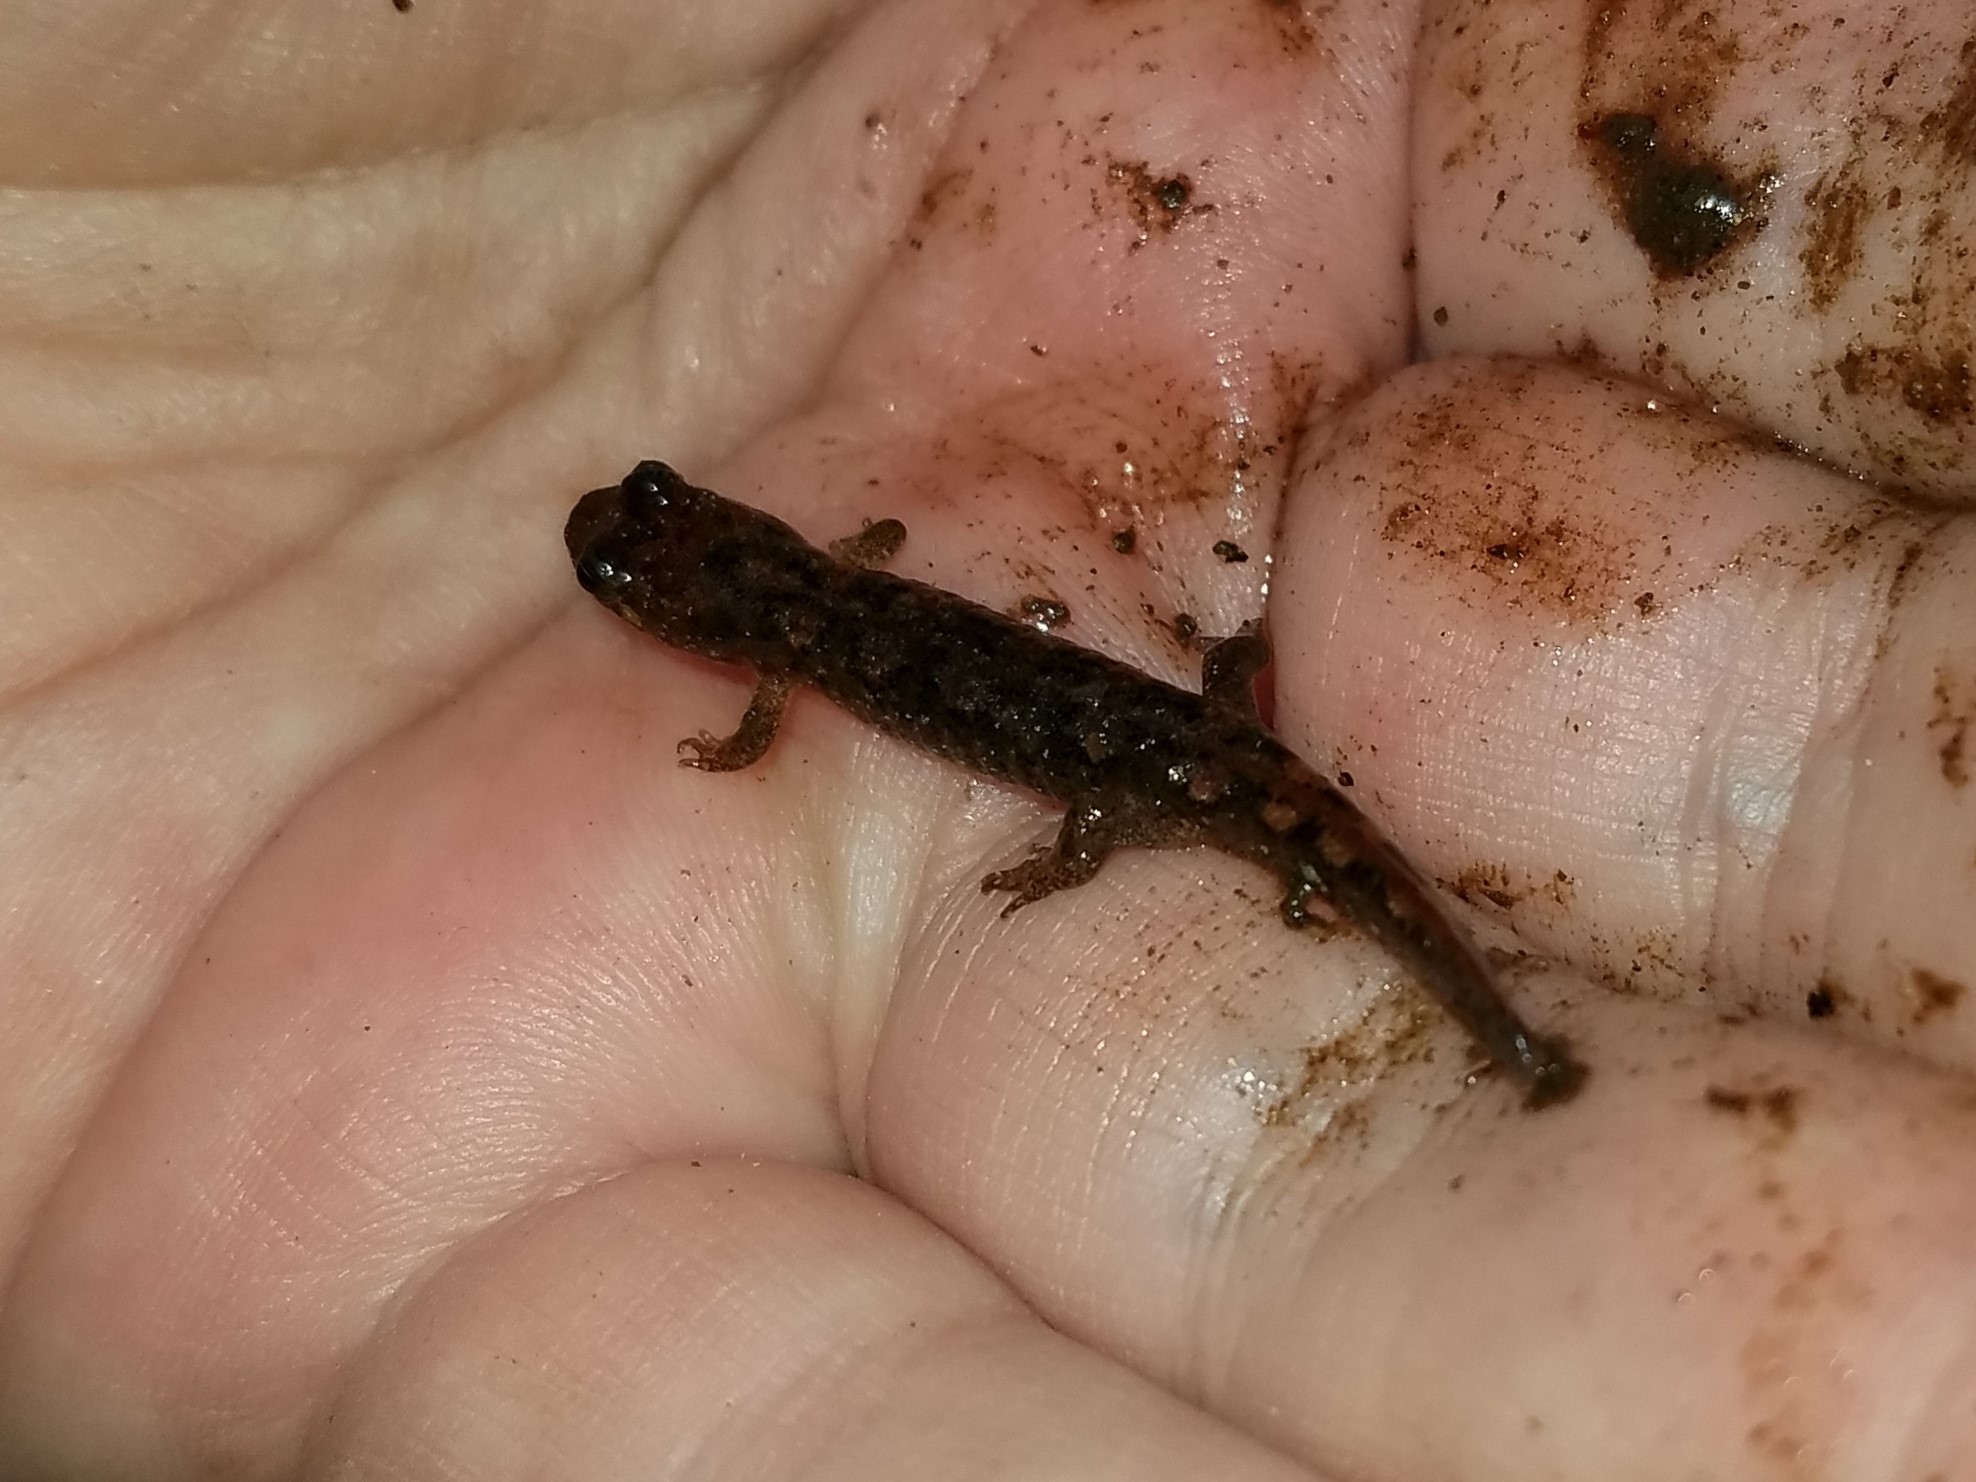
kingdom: Animalia
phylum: Chordata
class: Amphibia
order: Caudata
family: Plethodontidae
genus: Desmognathus
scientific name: Desmognathus monticola
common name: Seal salamander
